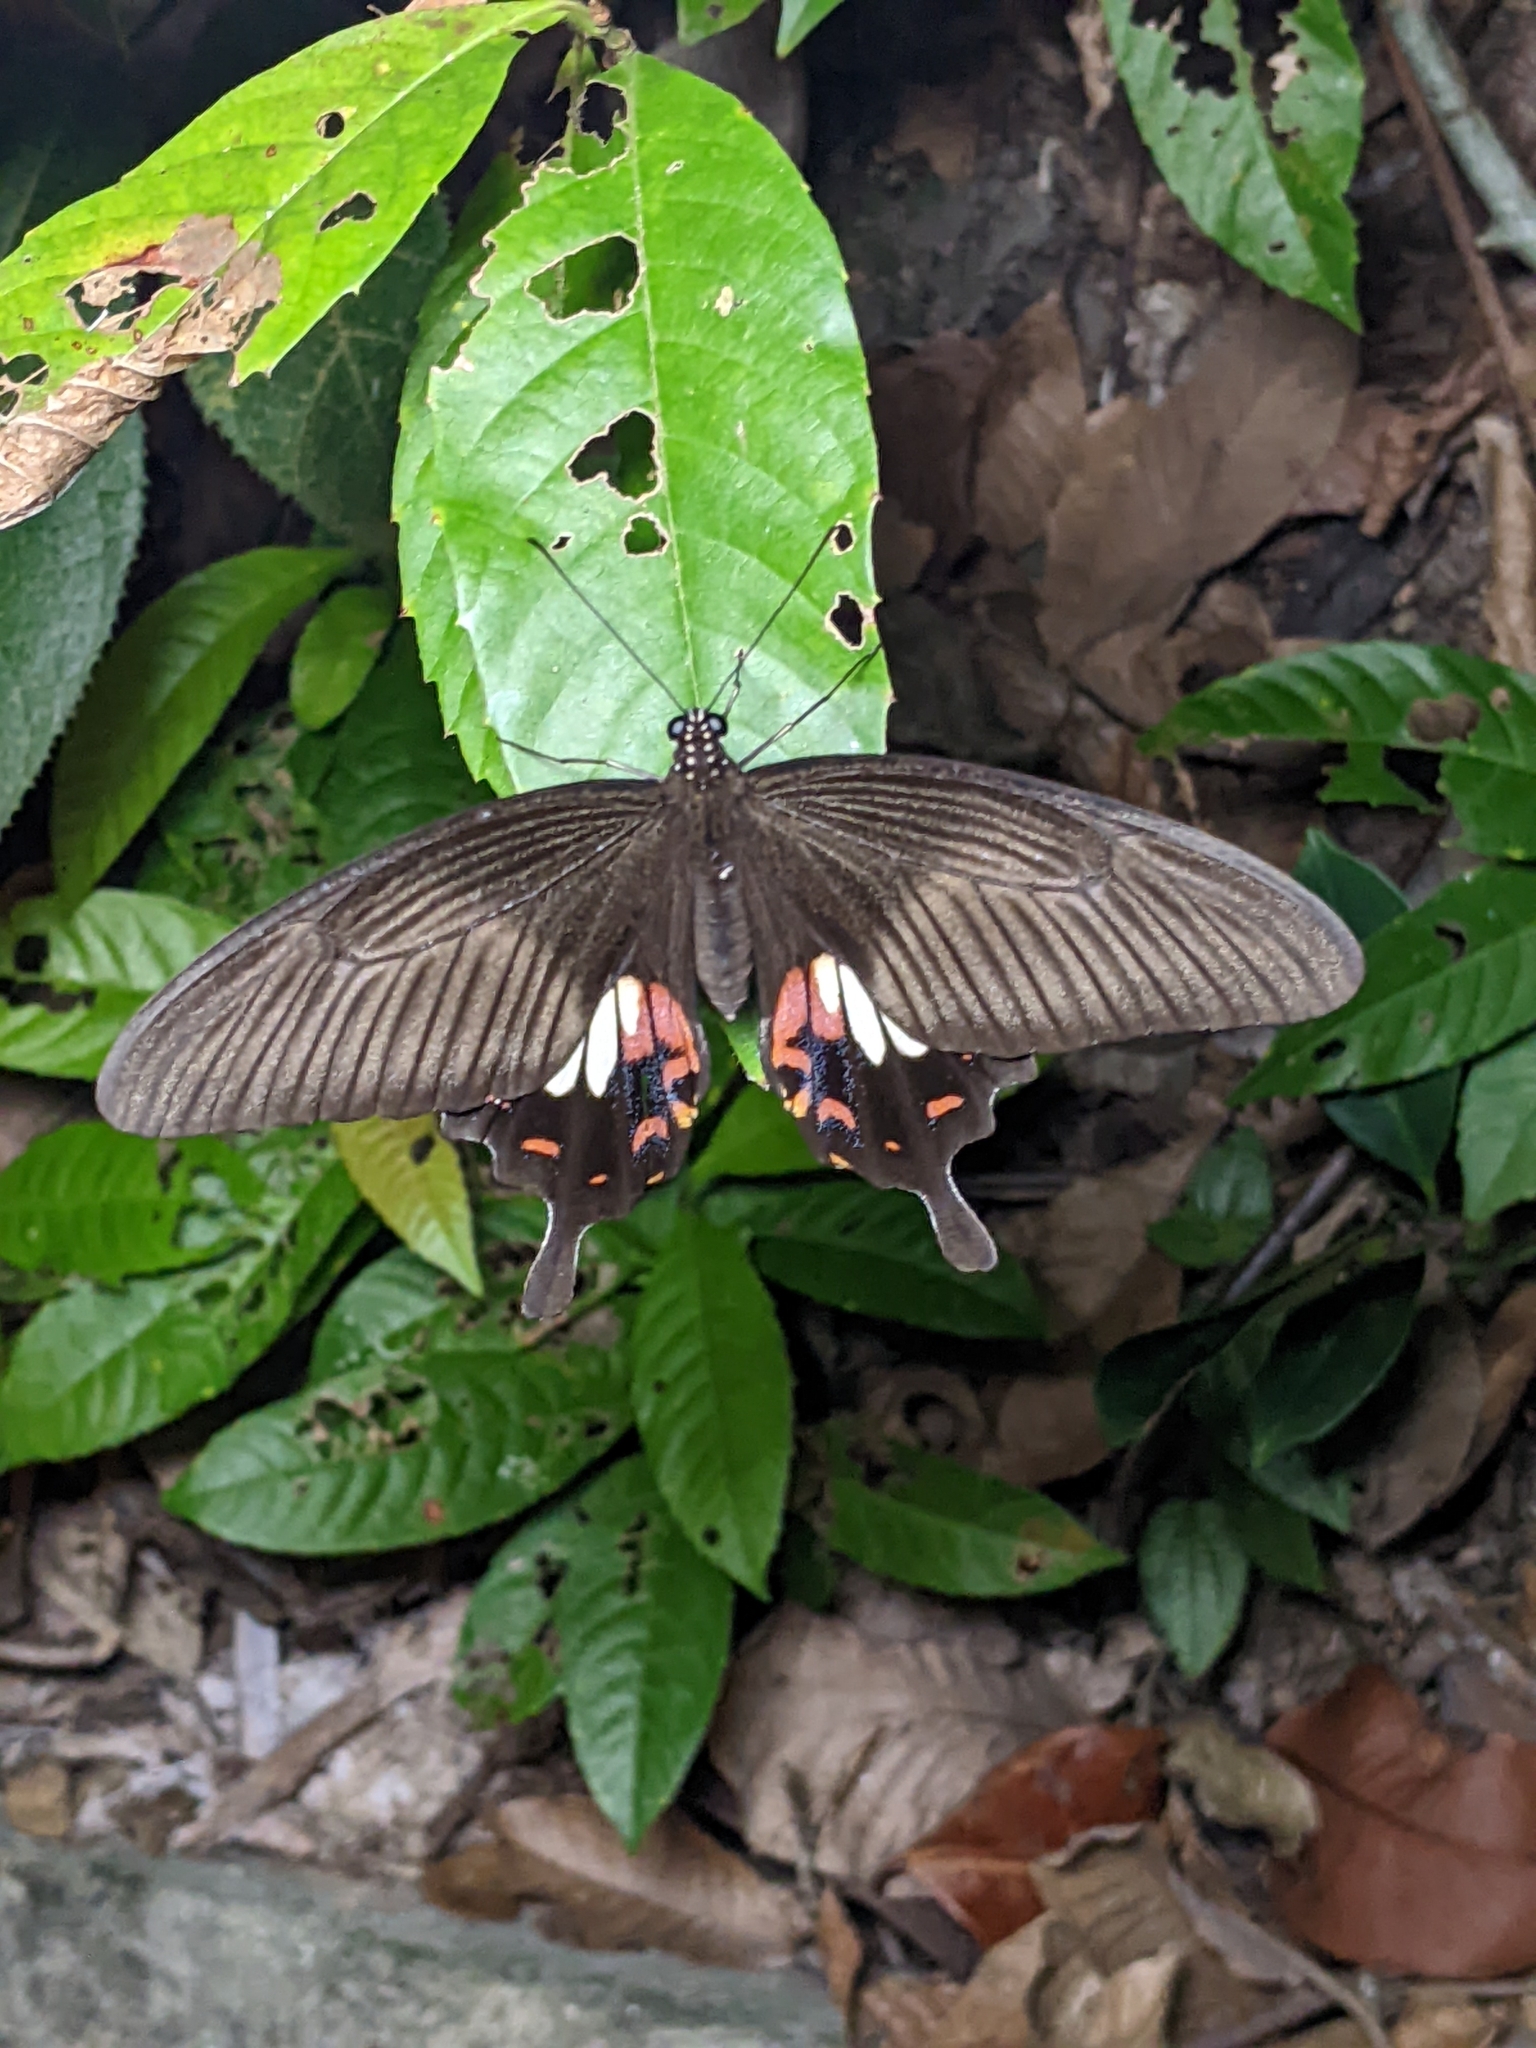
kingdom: Animalia
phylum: Arthropoda
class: Insecta
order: Lepidoptera
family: Papilionidae
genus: Papilio
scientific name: Papilio polytes
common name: Common mormon
